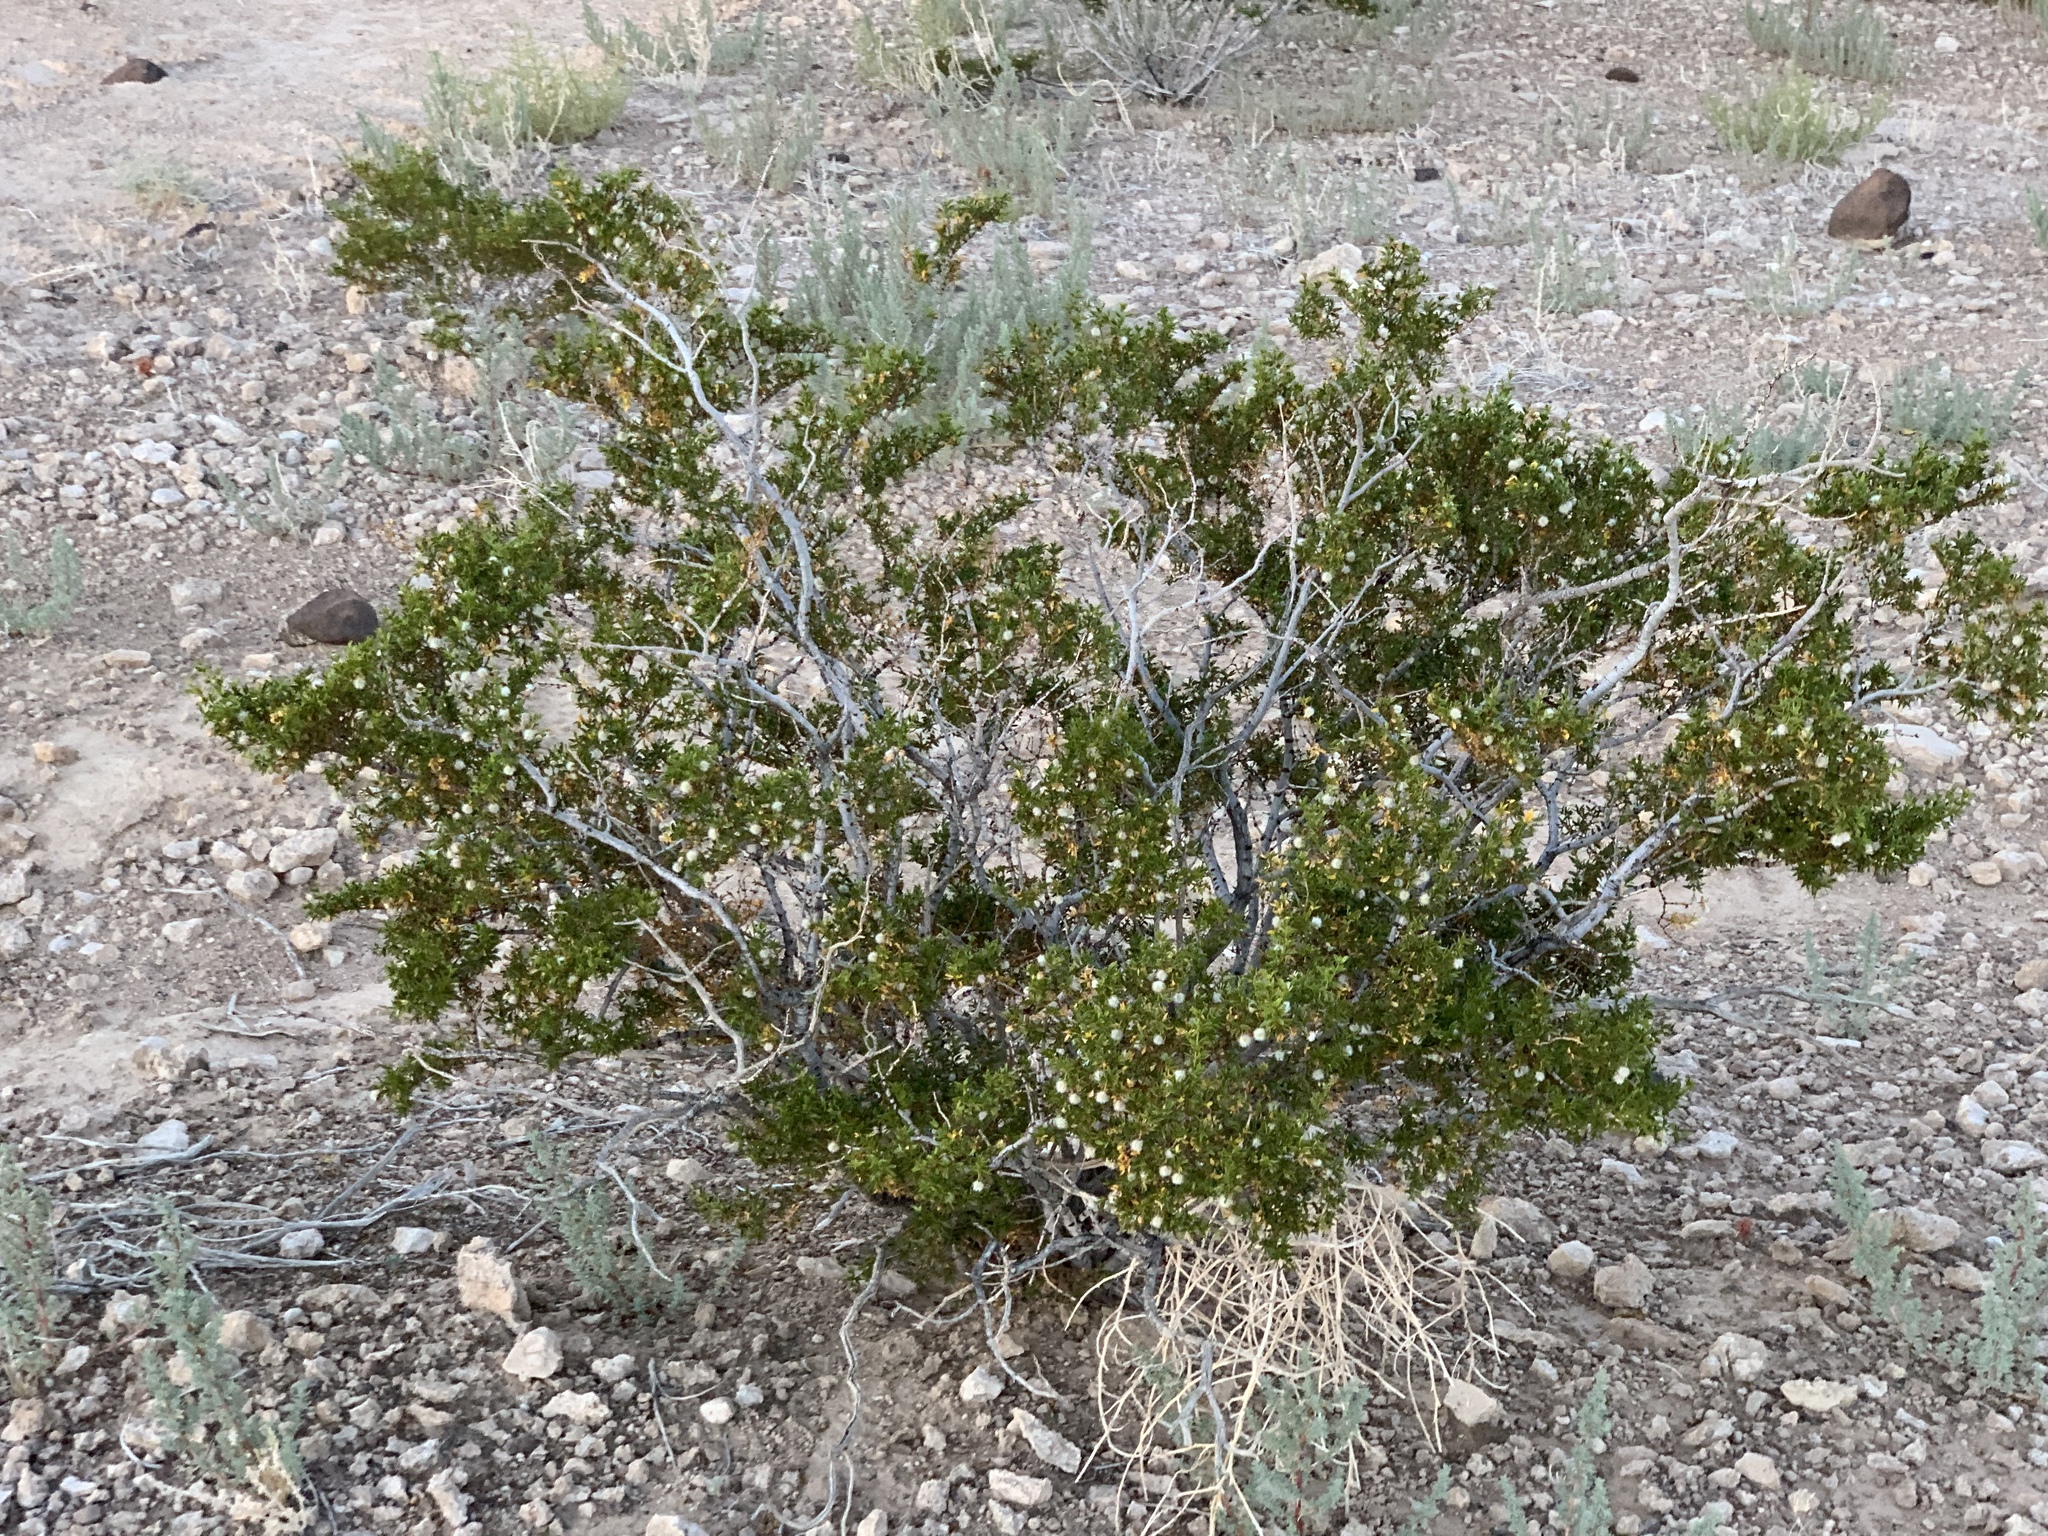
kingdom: Plantae
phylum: Tracheophyta
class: Magnoliopsida
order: Zygophyllales
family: Zygophyllaceae
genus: Larrea
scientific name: Larrea tridentata
